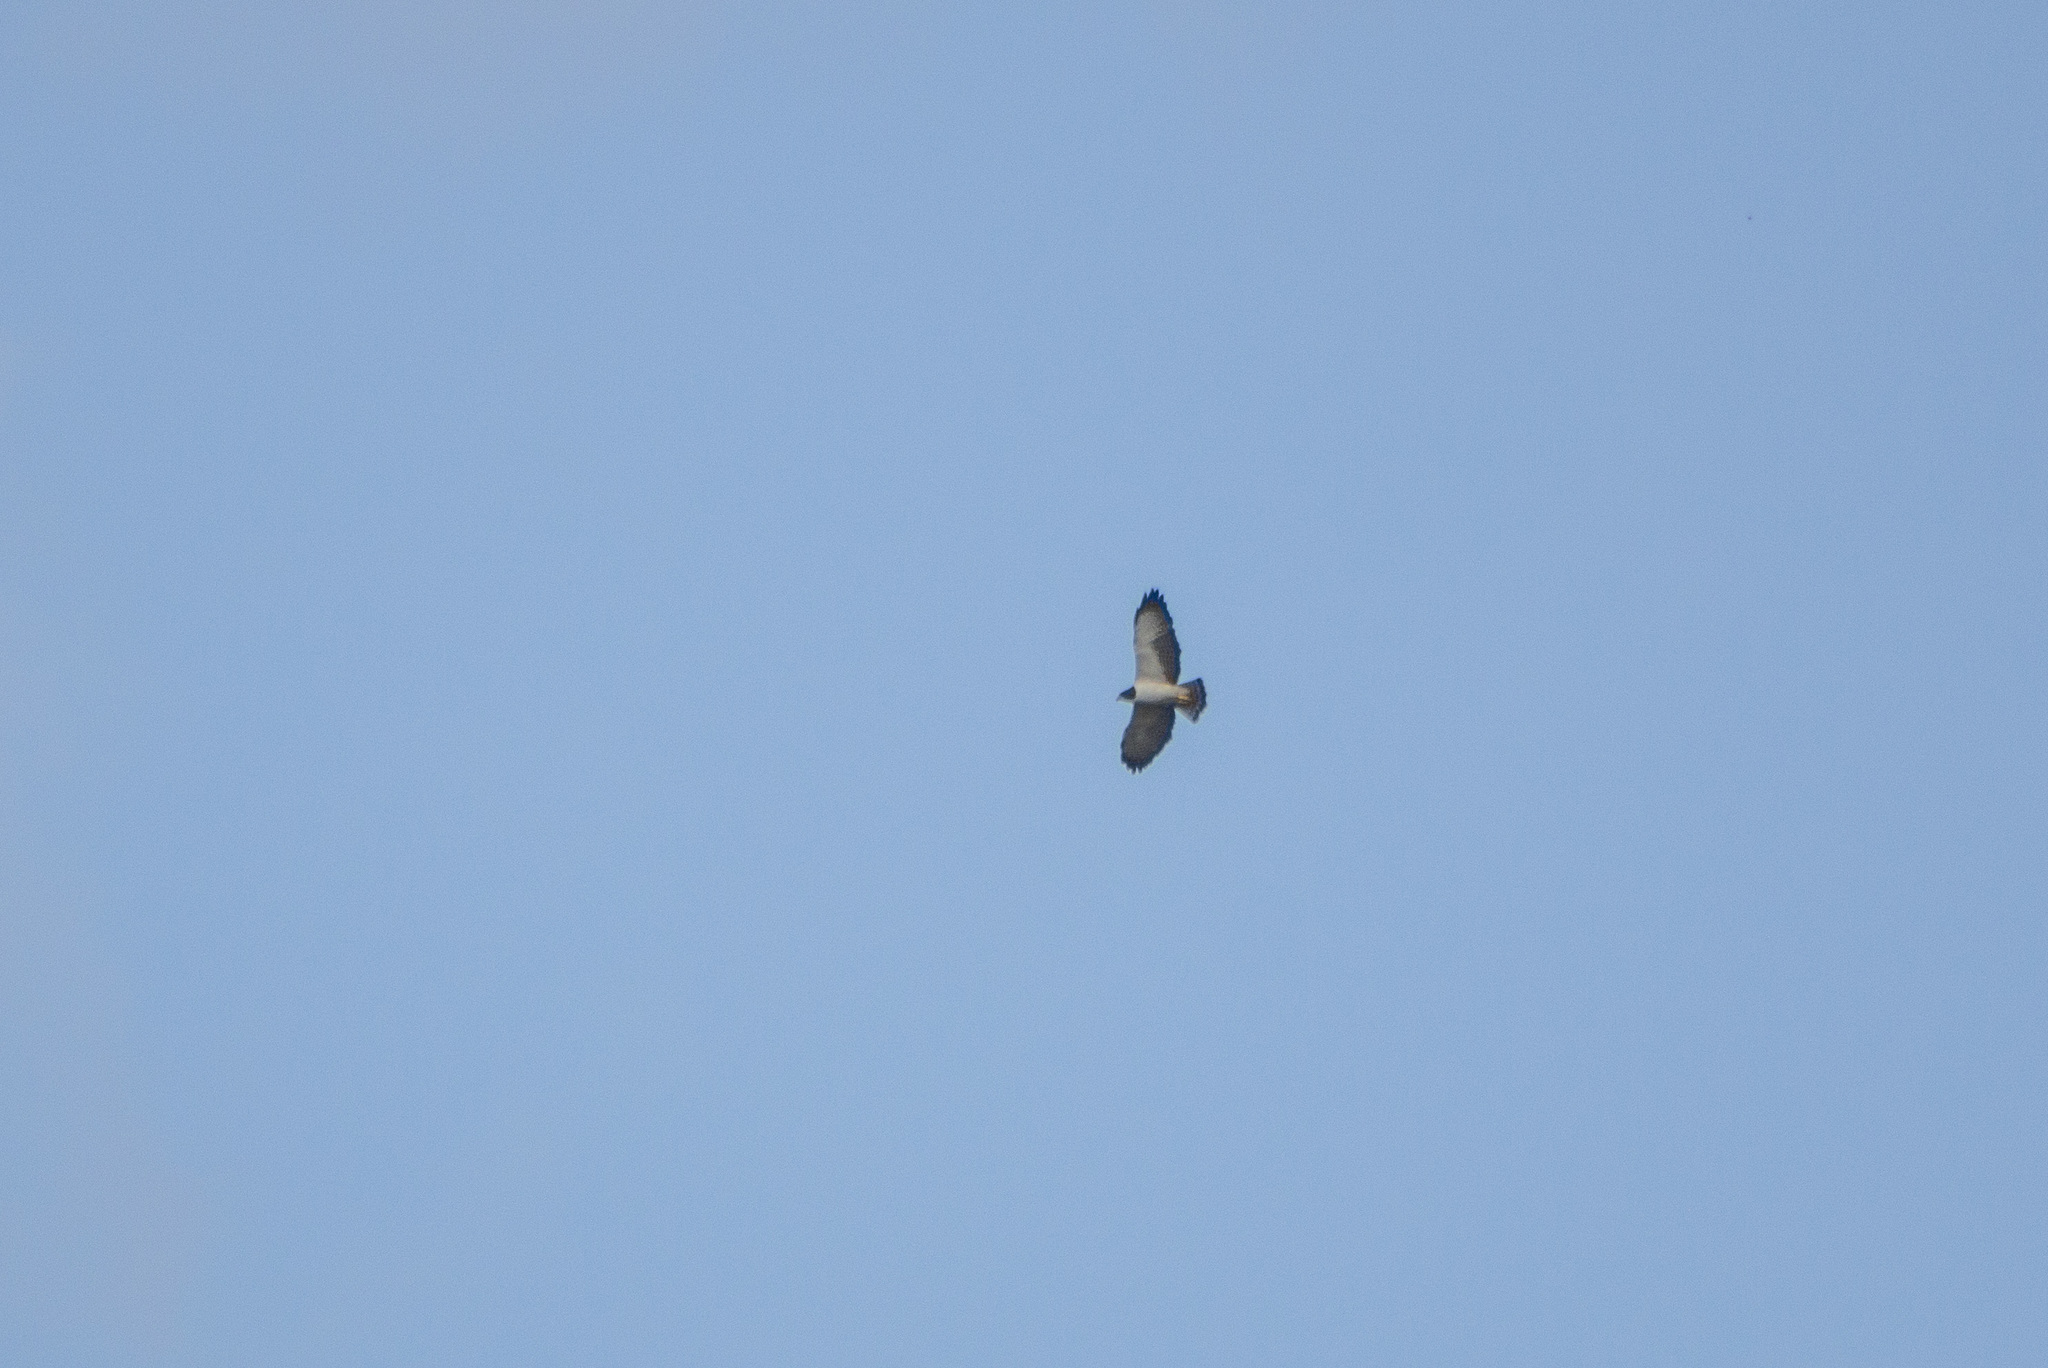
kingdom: Animalia
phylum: Chordata
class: Aves
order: Accipitriformes
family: Accipitridae
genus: Buteo
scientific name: Buteo brachyurus
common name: Short-tailed hawk
